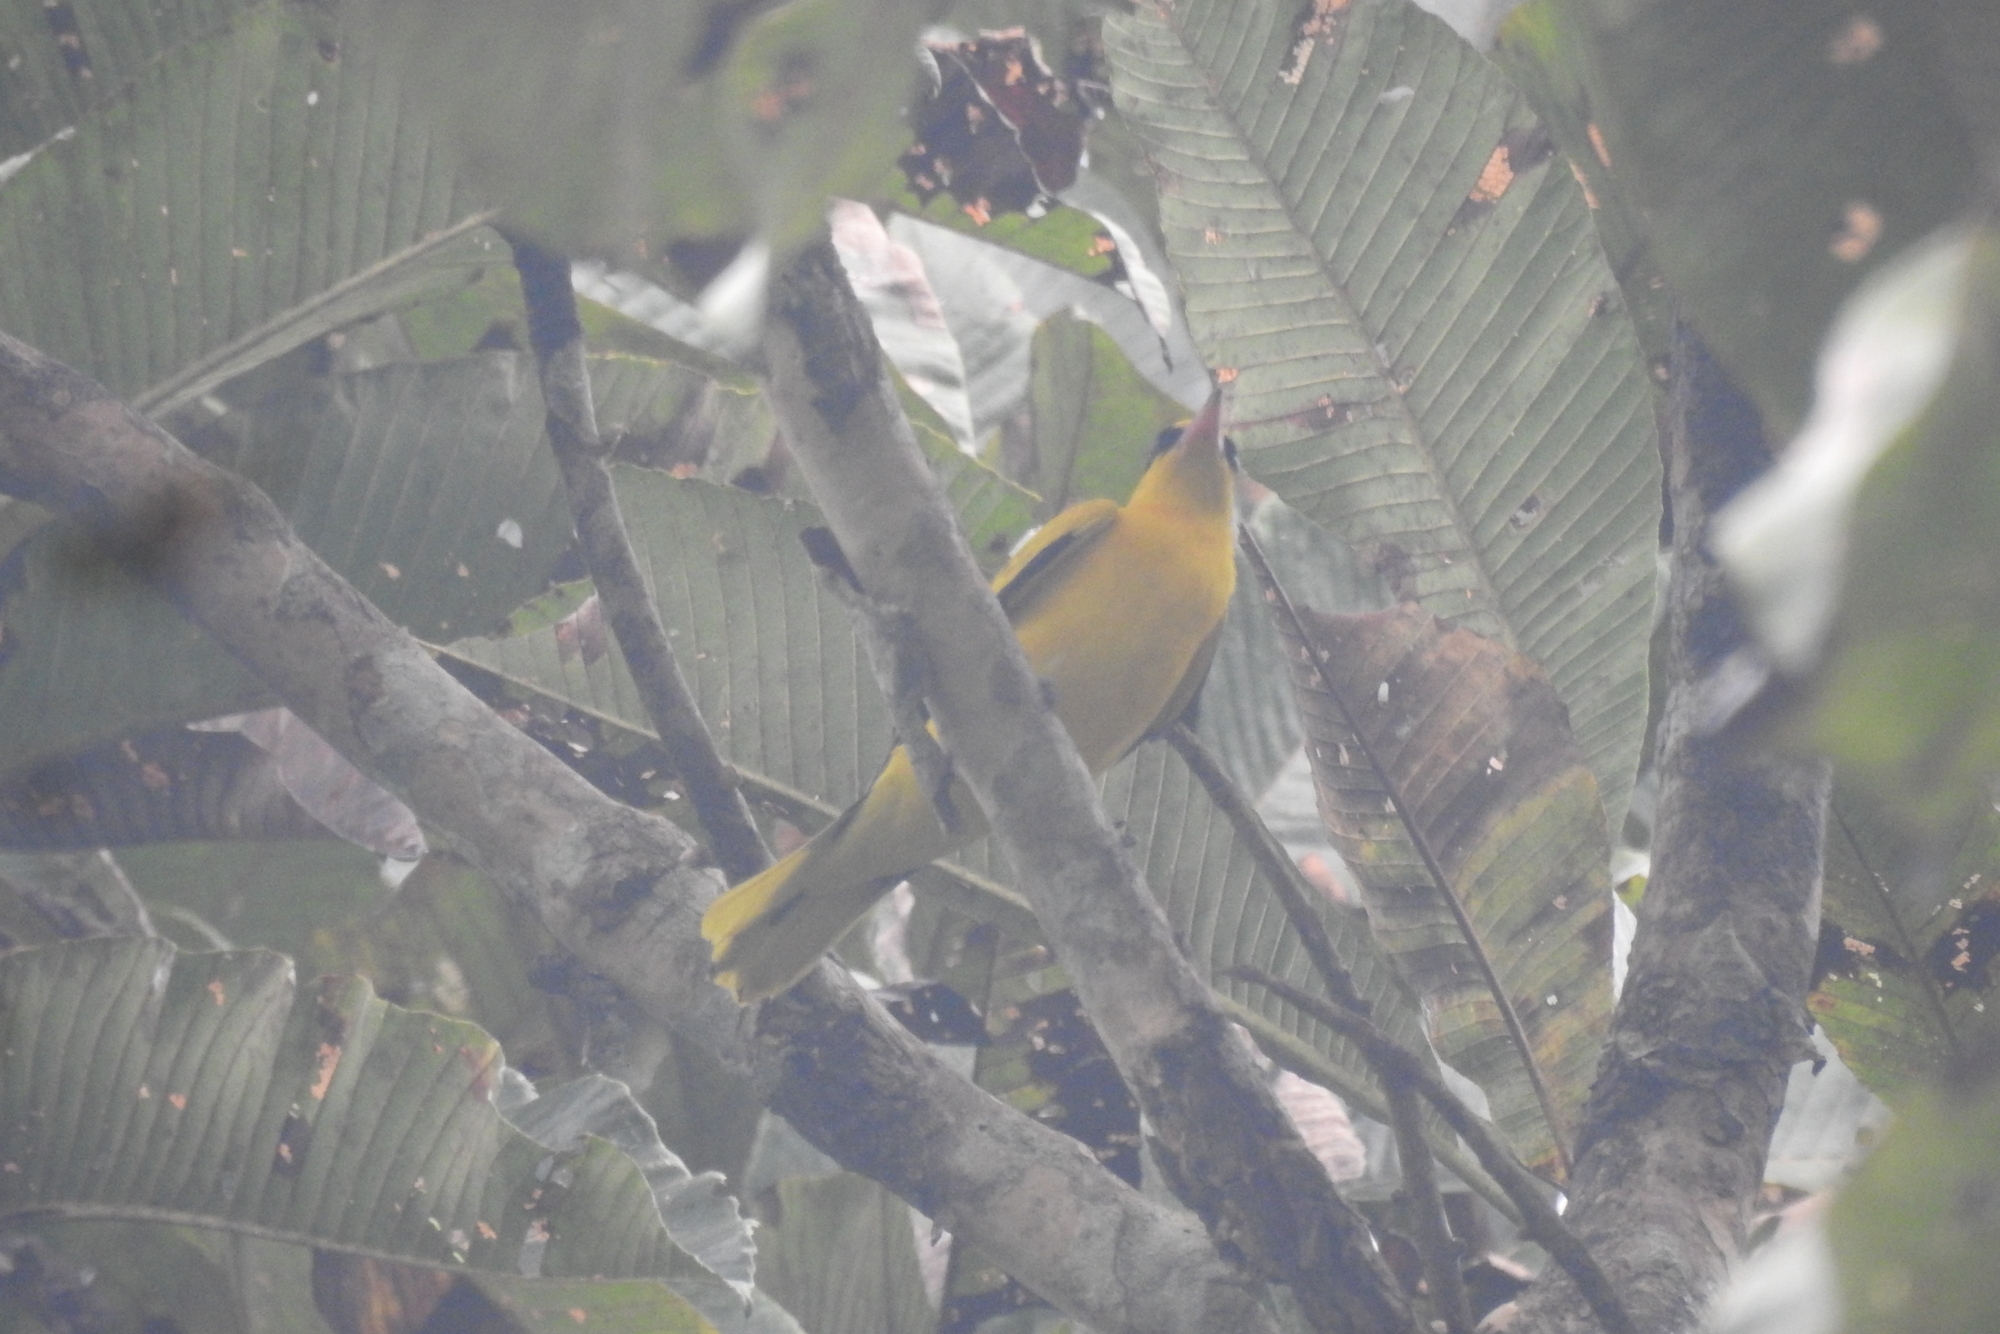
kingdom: Animalia
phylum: Chordata
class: Aves
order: Passeriformes
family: Oriolidae
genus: Oriolus
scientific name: Oriolus kundoo
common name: Indian golden oriole
